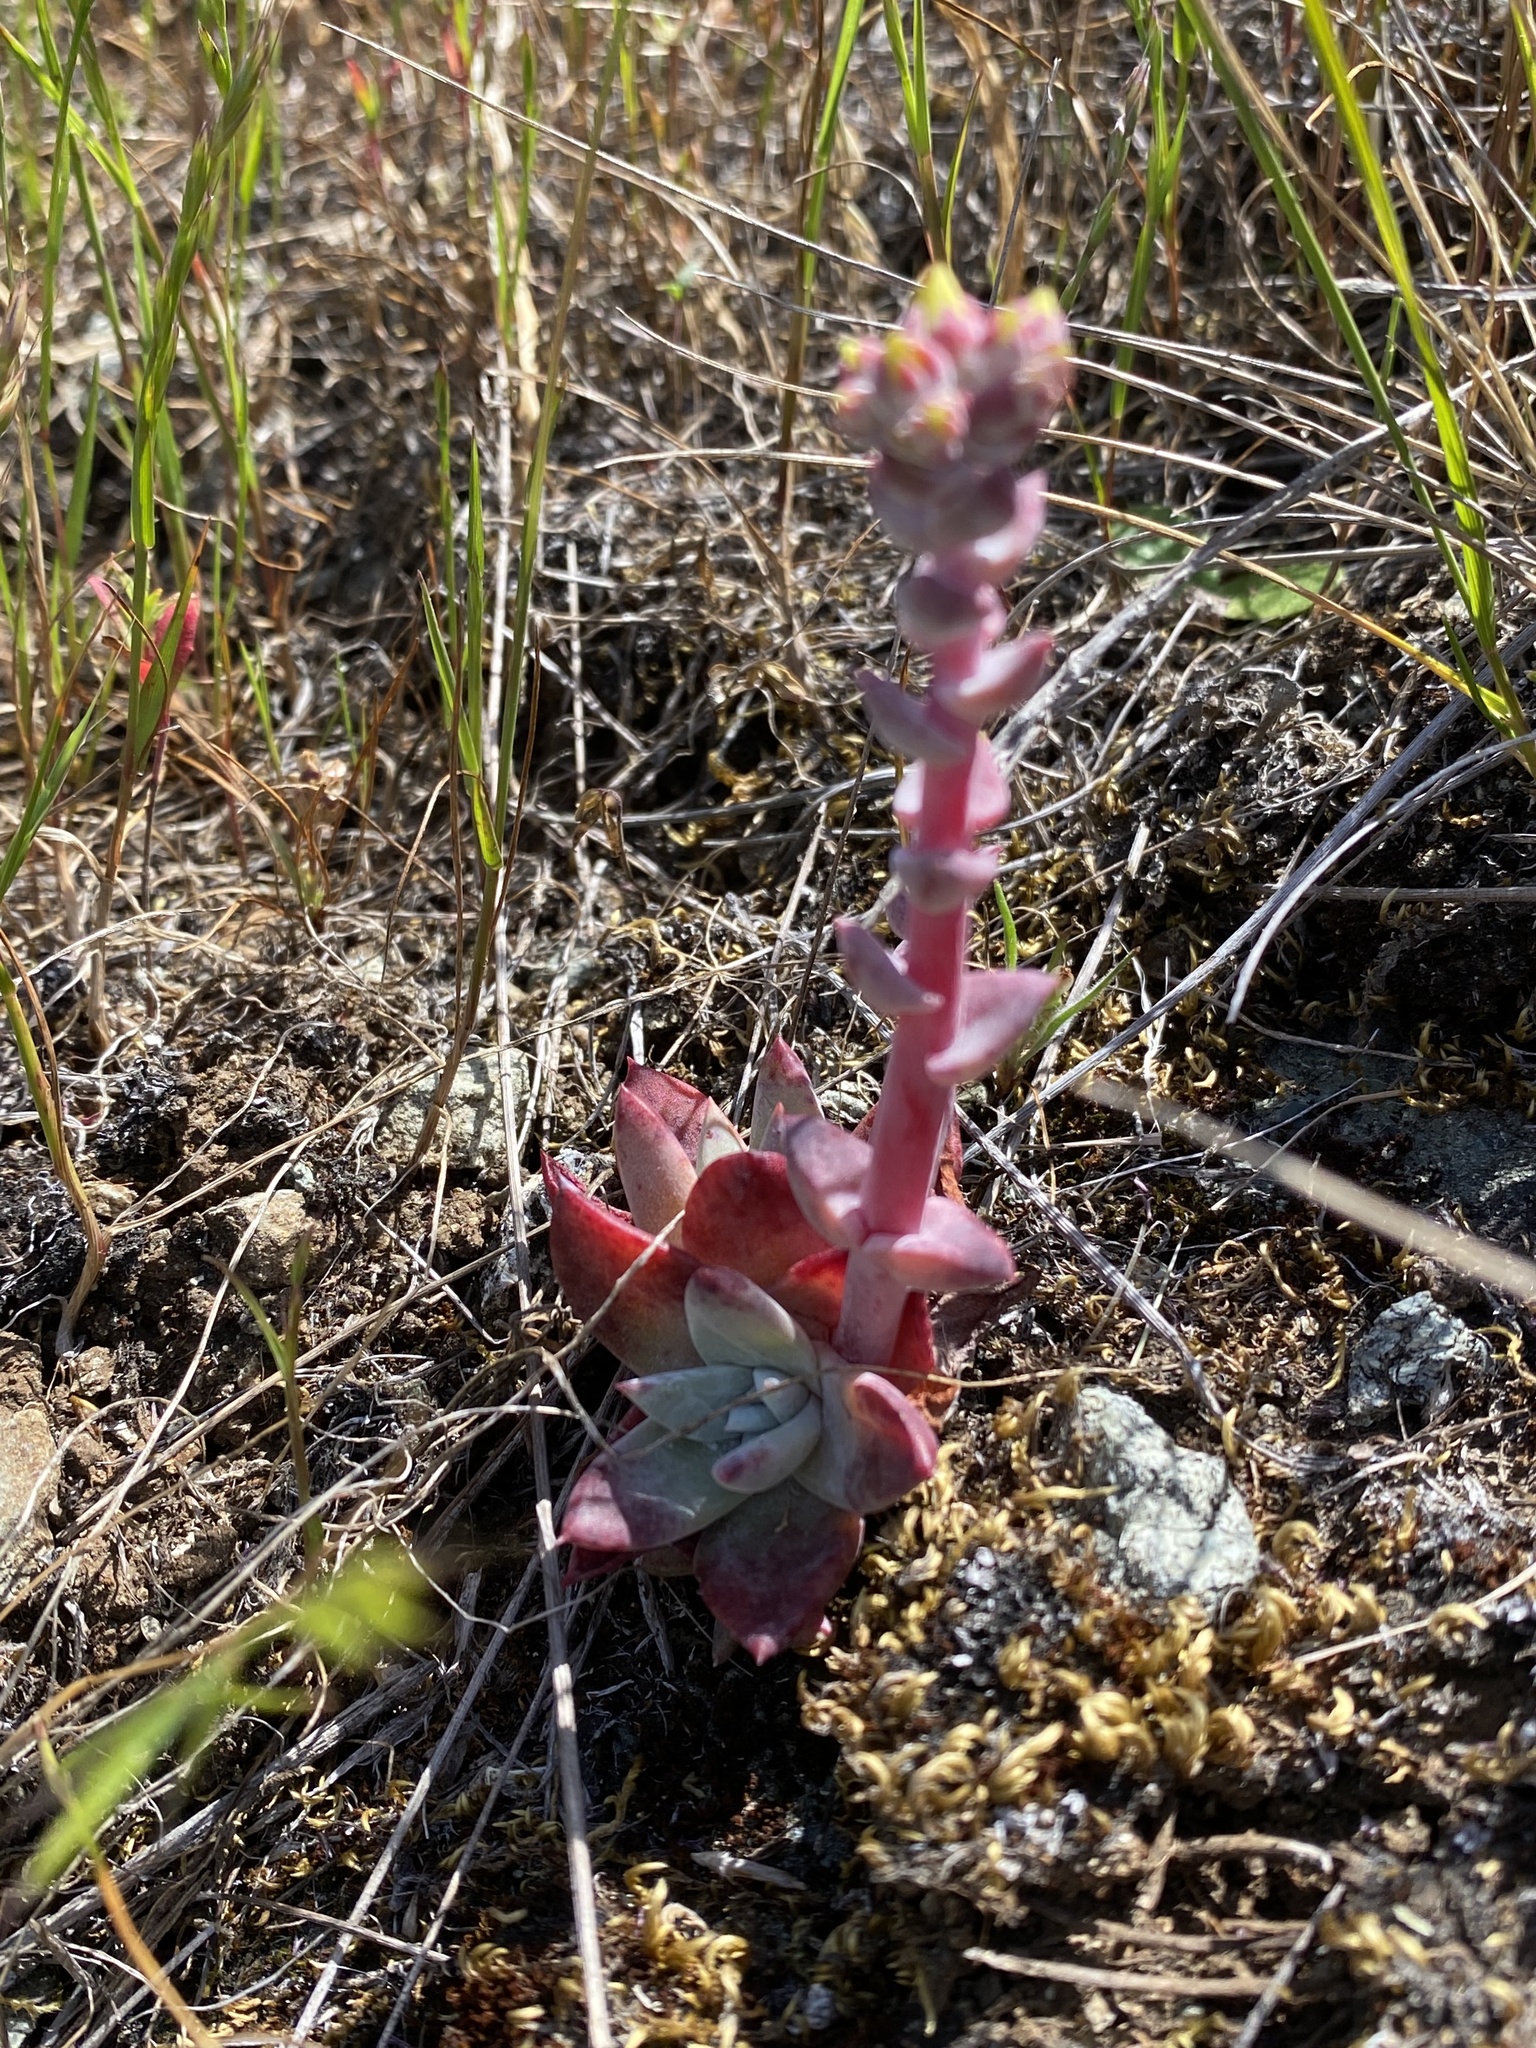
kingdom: Plantae
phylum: Tracheophyta
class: Magnoliopsida
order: Saxifragales
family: Crassulaceae
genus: Dudleya
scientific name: Dudleya farinosa
